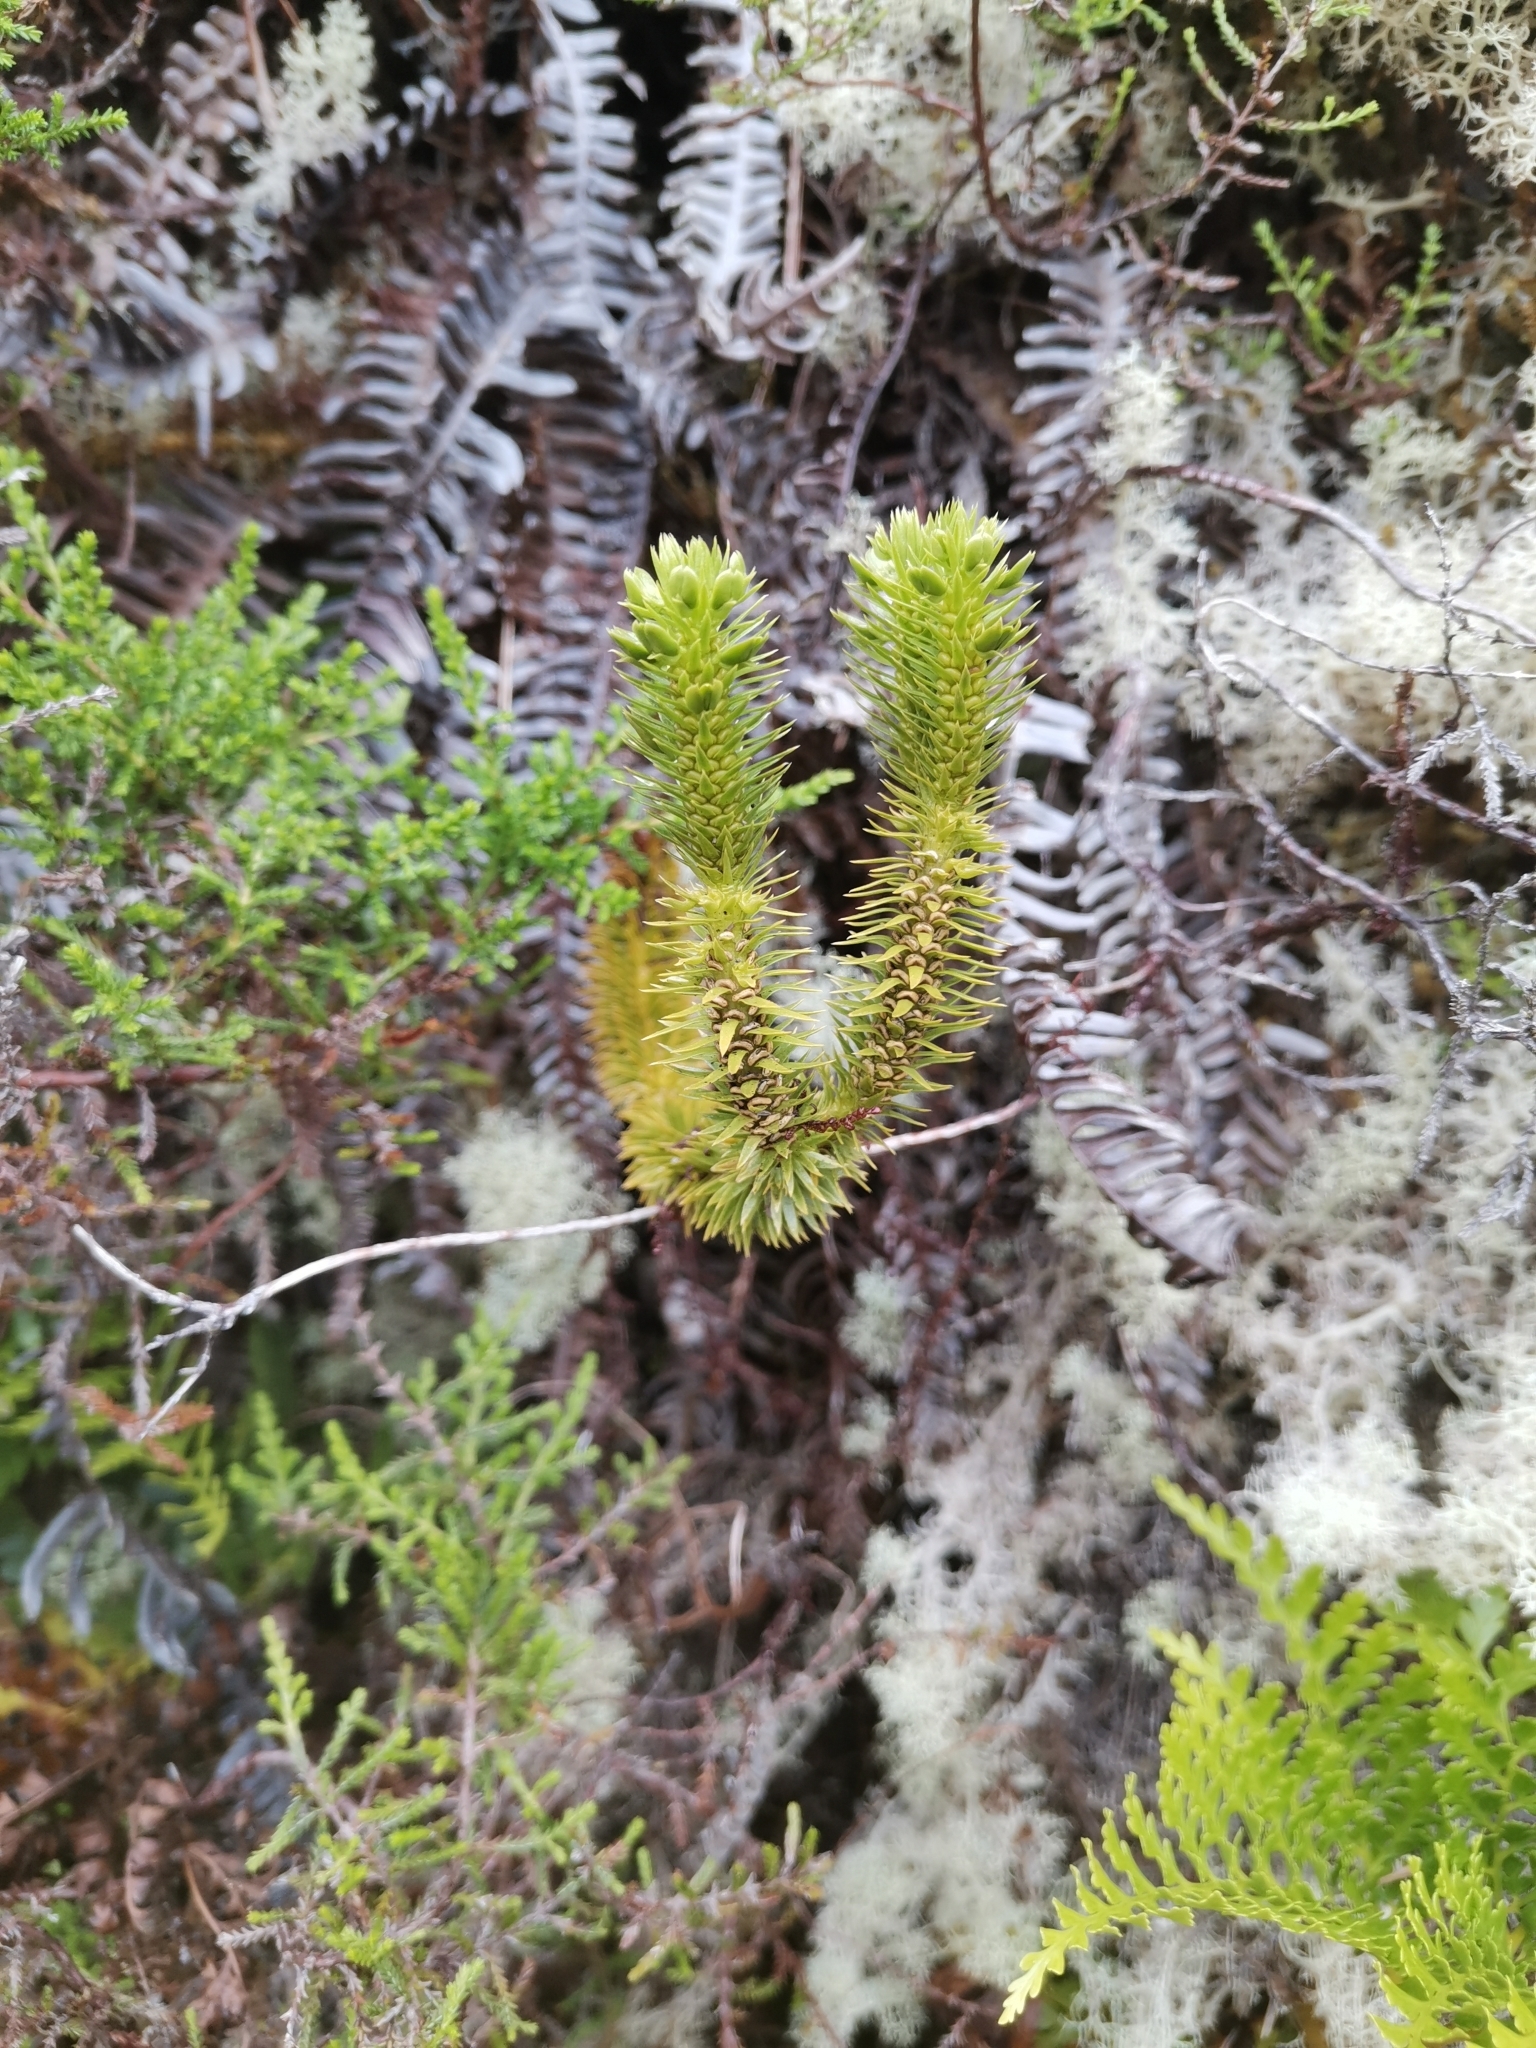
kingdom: Plantae
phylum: Tracheophyta
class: Lycopodiopsida
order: Lycopodiales
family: Lycopodiaceae
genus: Huperzia
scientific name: Huperzia suberecta
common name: Azorean clubmoss
